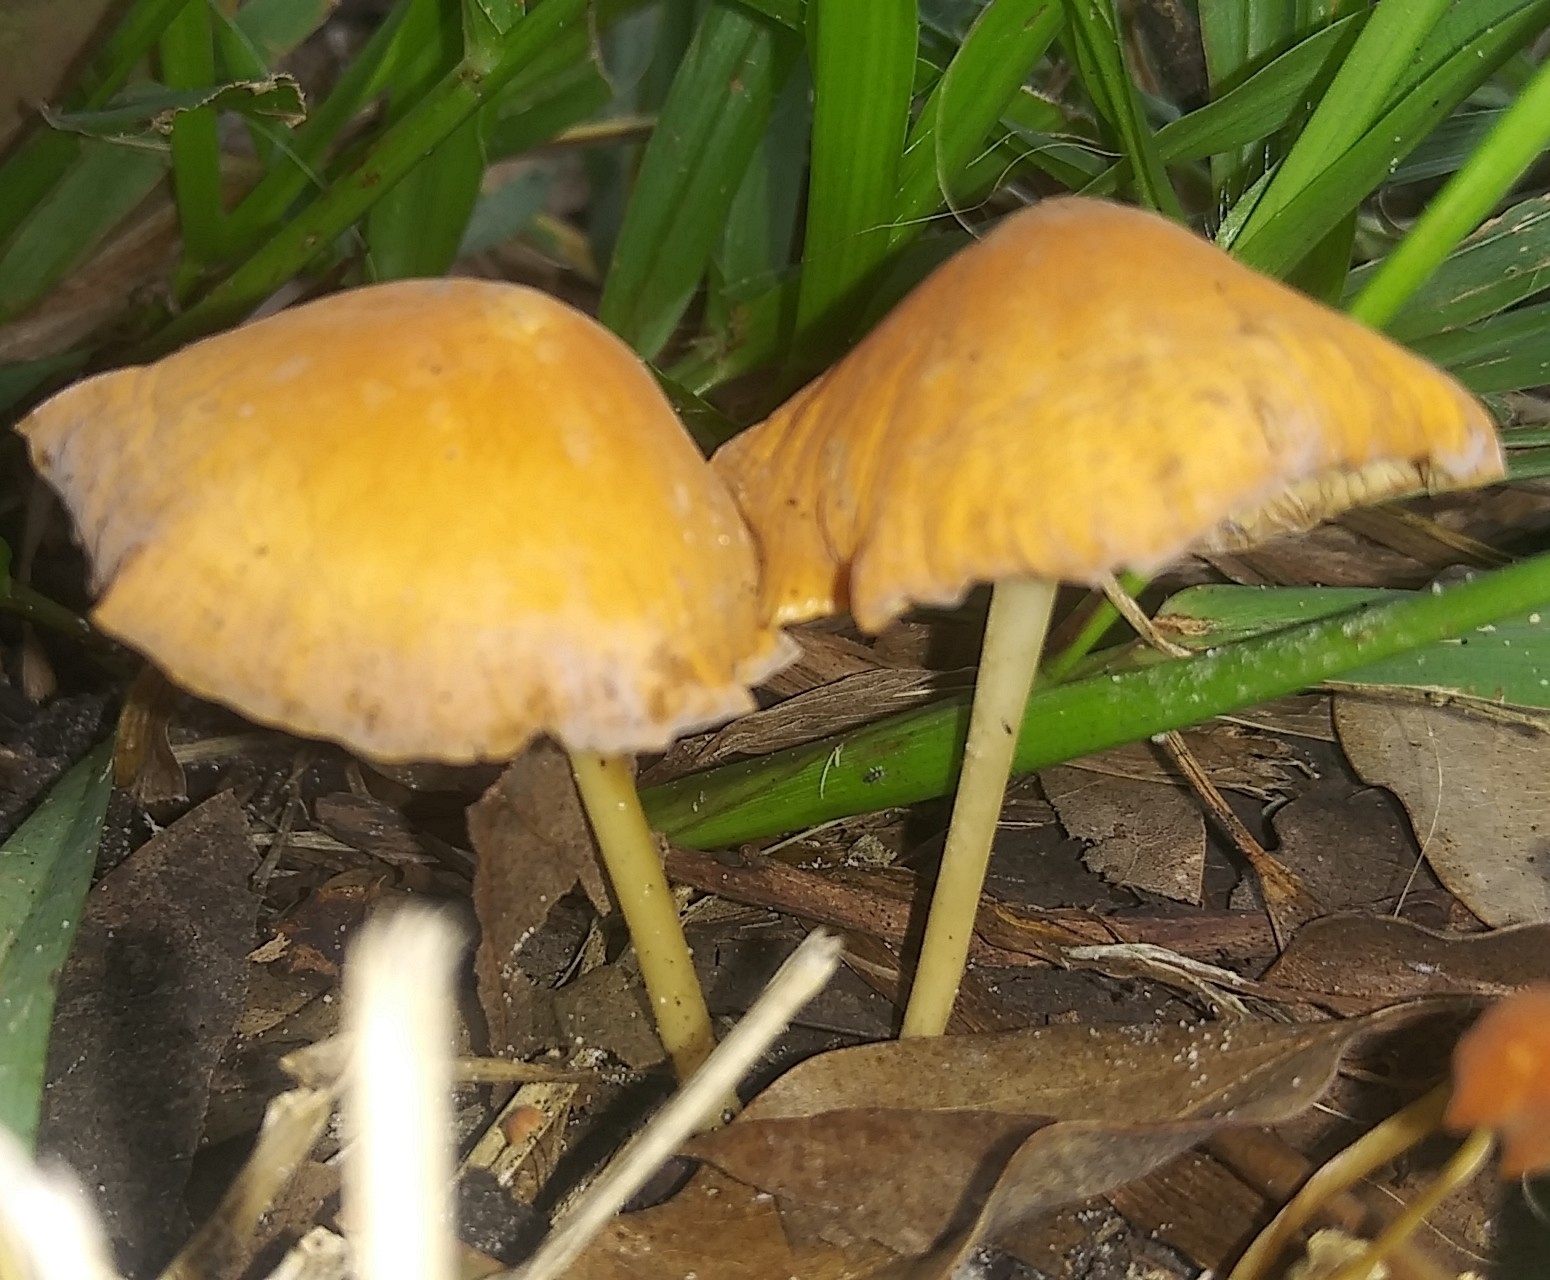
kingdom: Fungi
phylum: Basidiomycota
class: Agaricomycetes
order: Agaricales
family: Marasmiaceae
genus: Marasmius
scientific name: Marasmius vagus
